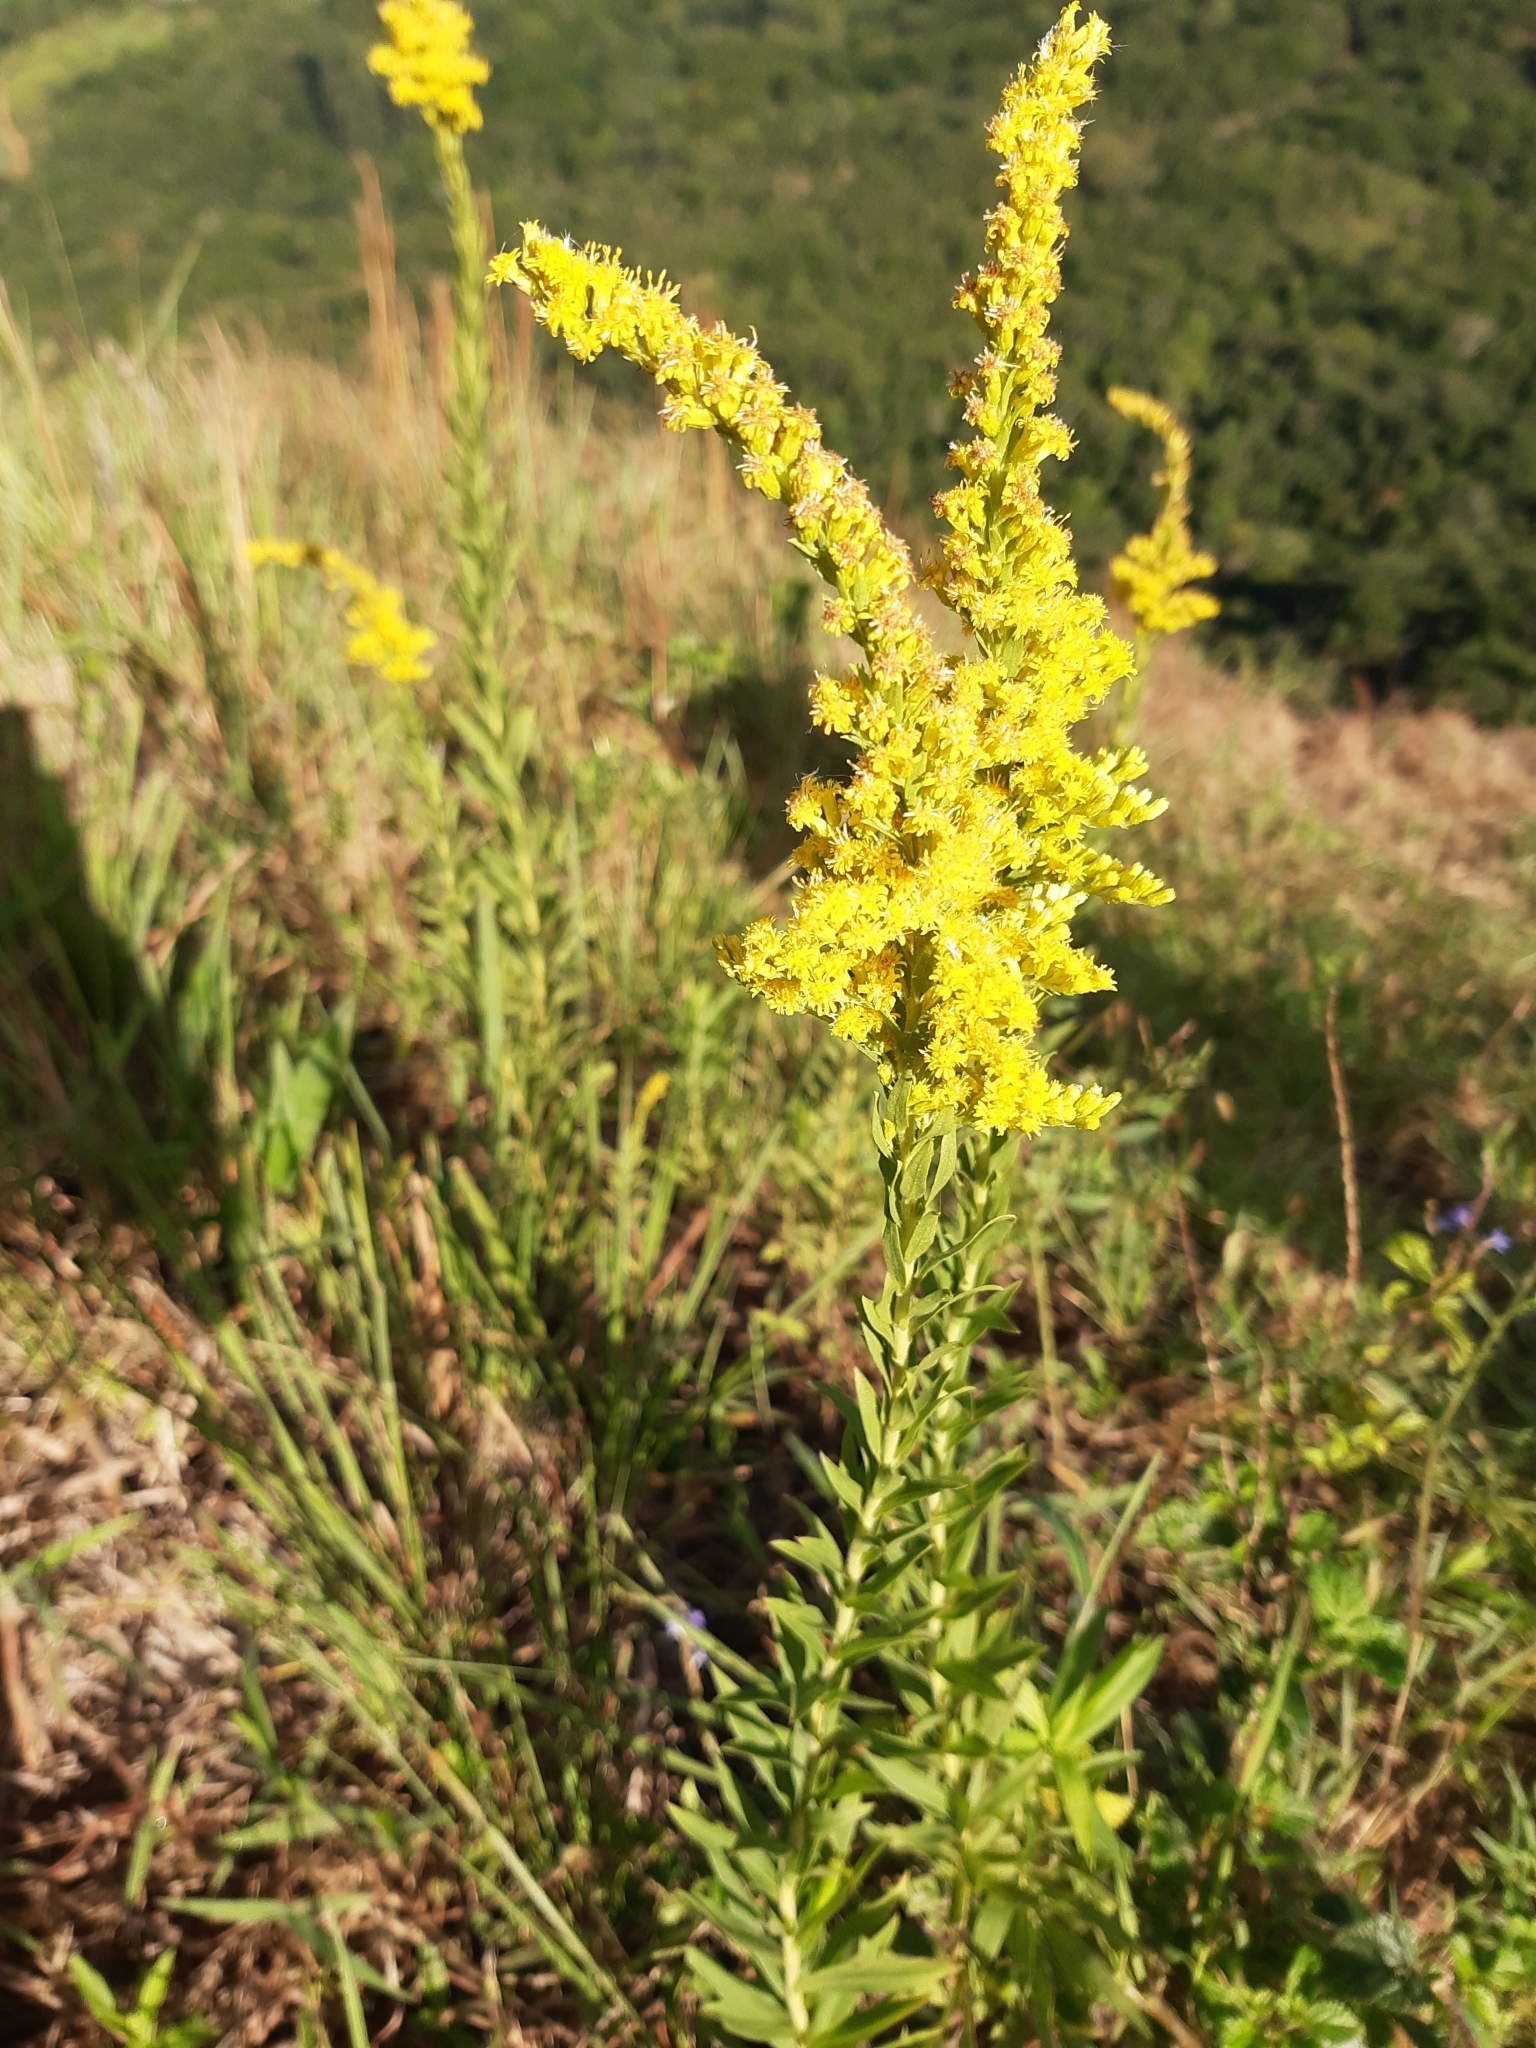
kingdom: Plantae
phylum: Tracheophyta
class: Magnoliopsida
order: Asterales
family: Asteraceae
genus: Solidago
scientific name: Solidago chilensis
